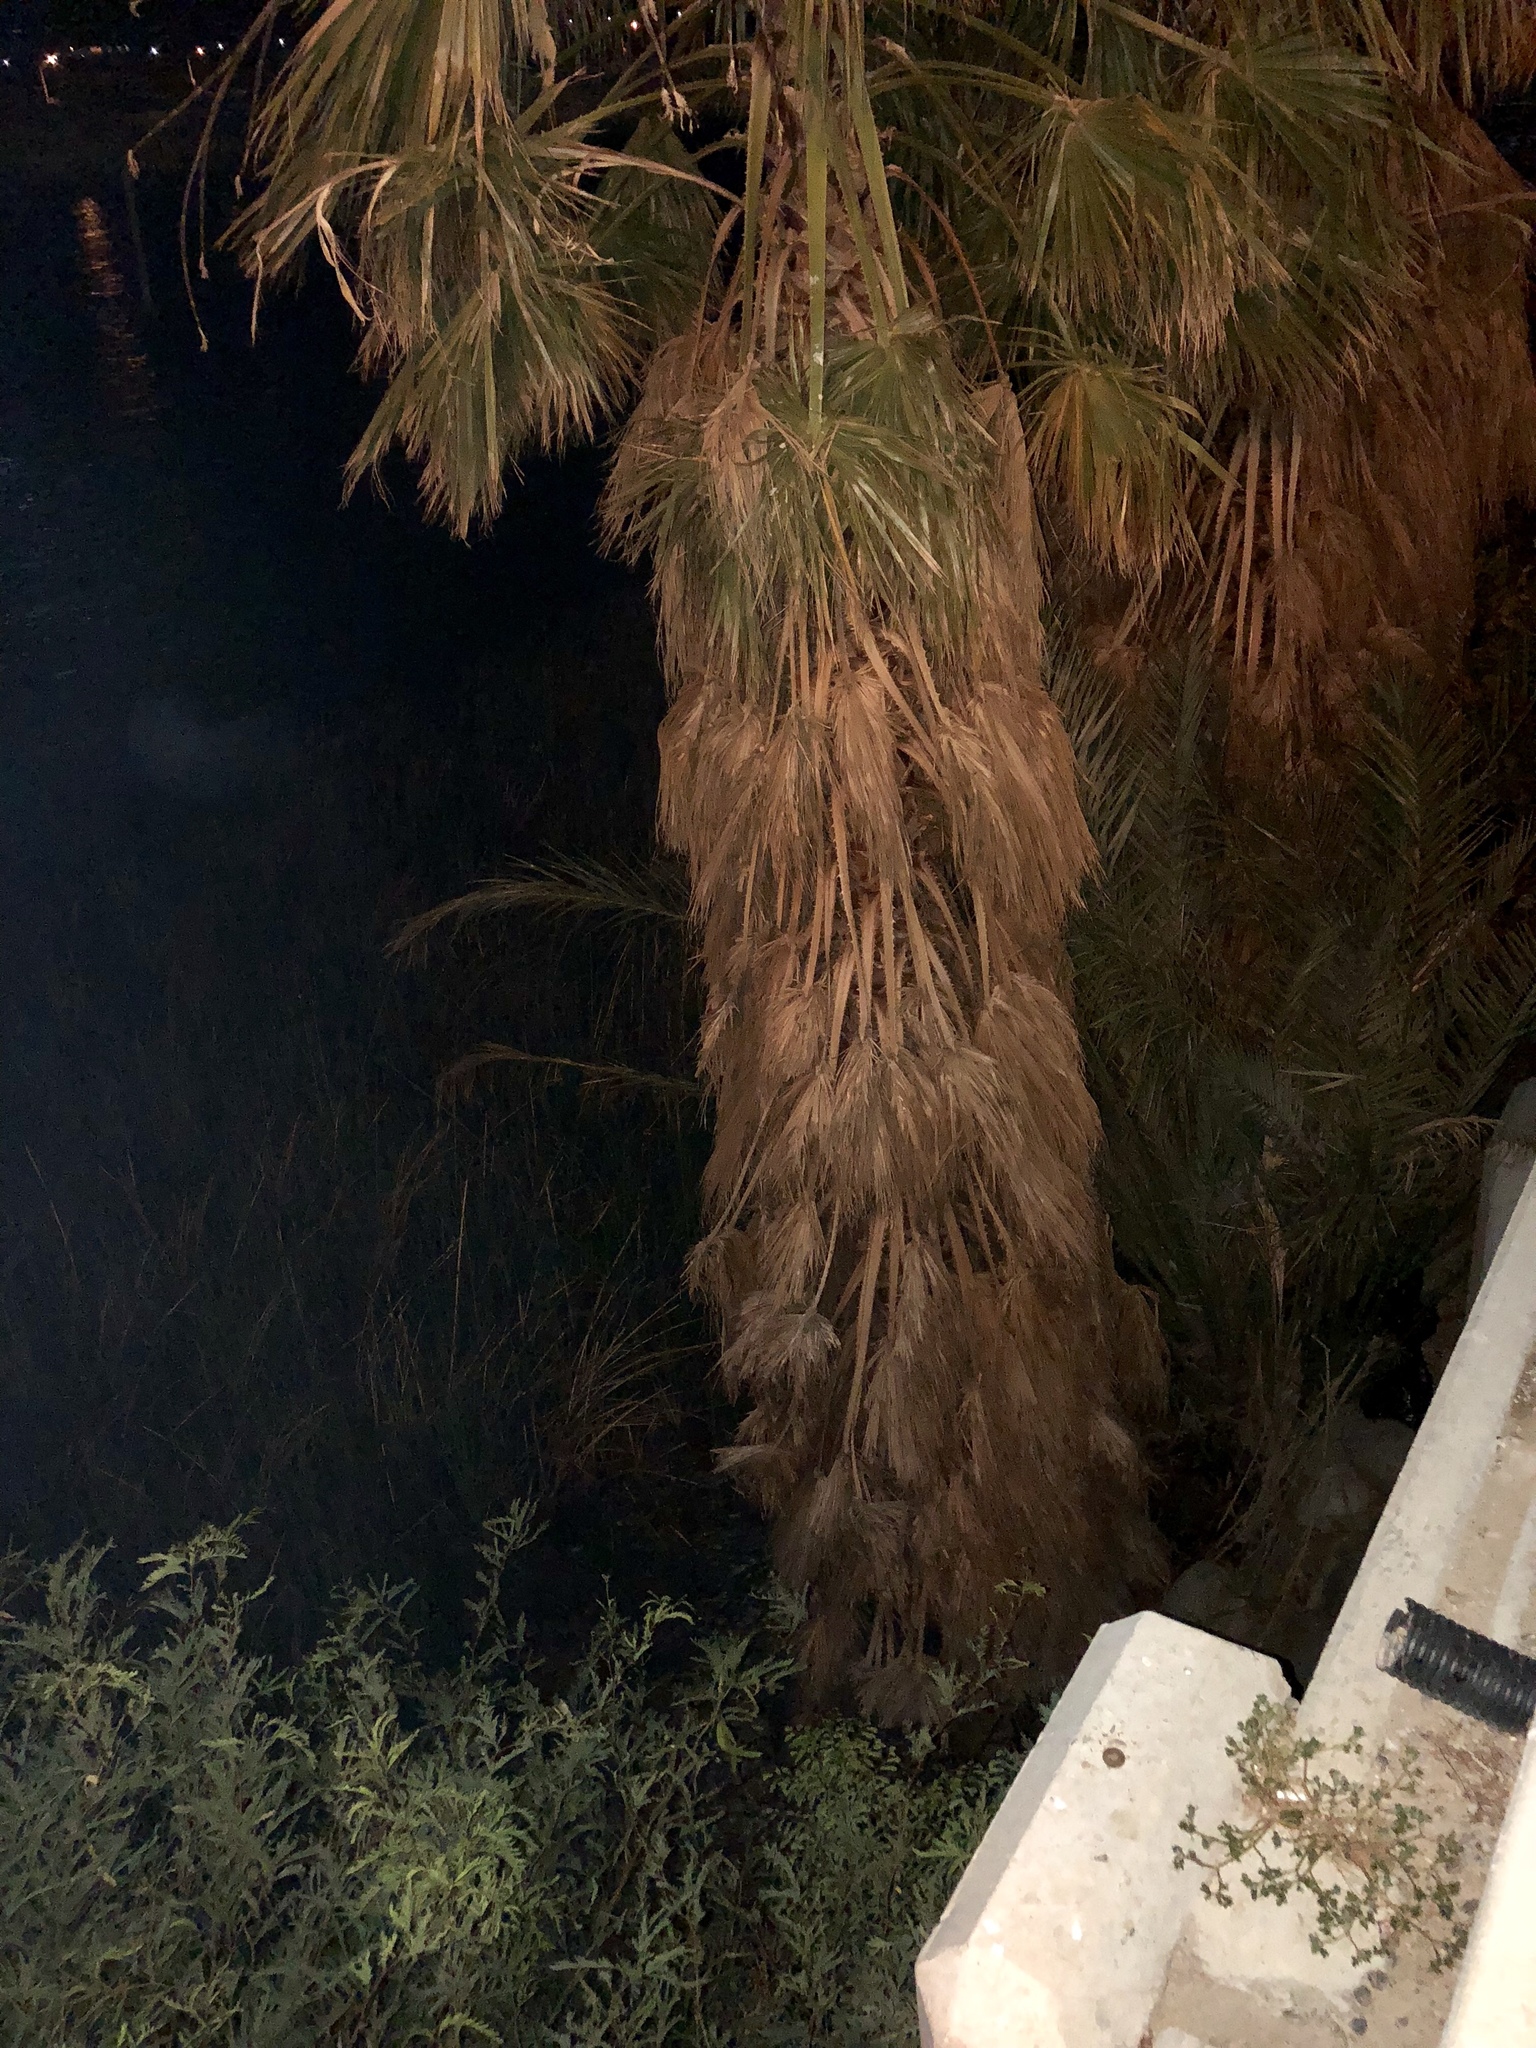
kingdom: Plantae
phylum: Tracheophyta
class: Liliopsida
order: Arecales
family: Arecaceae
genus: Washingtonia
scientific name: Washingtonia filifera
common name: California fan palm
